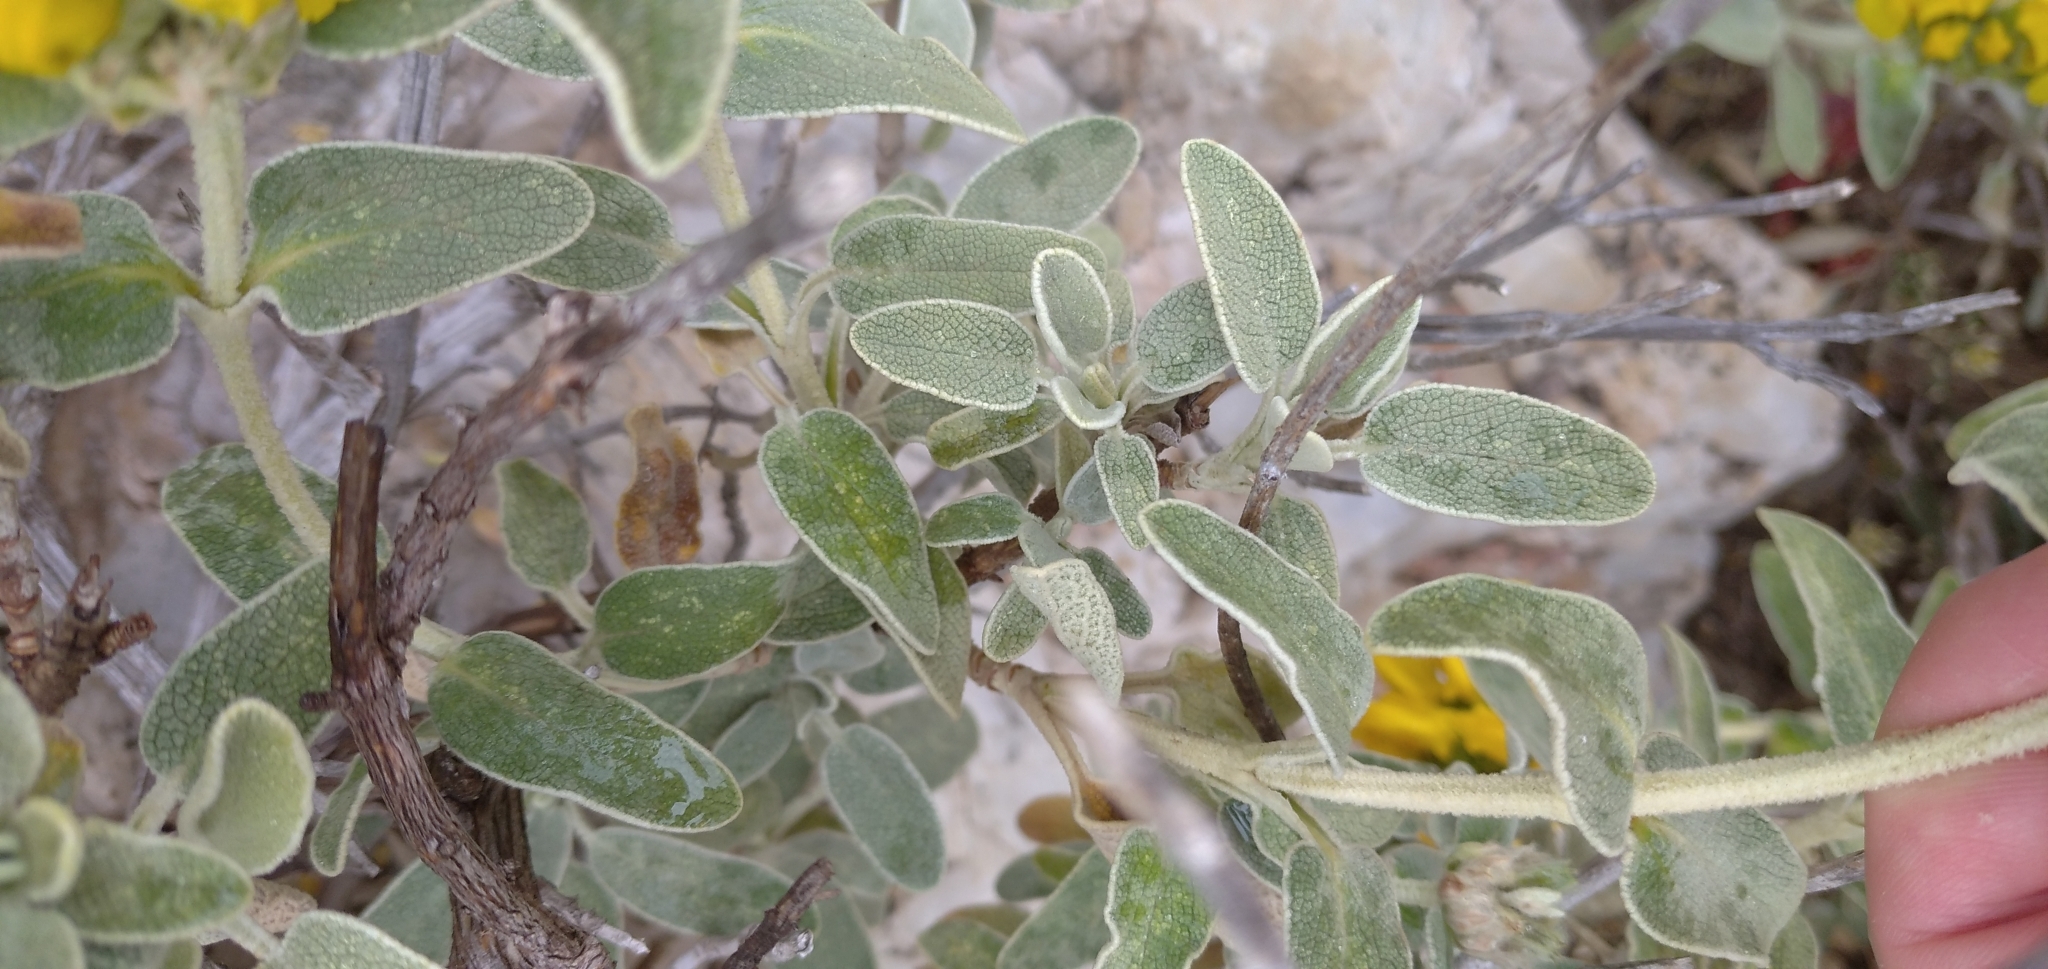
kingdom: Plantae
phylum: Tracheophyta
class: Magnoliopsida
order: Lamiales
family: Lamiaceae
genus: Phlomis
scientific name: Phlomis fruticosa
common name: Jerusalem sage
